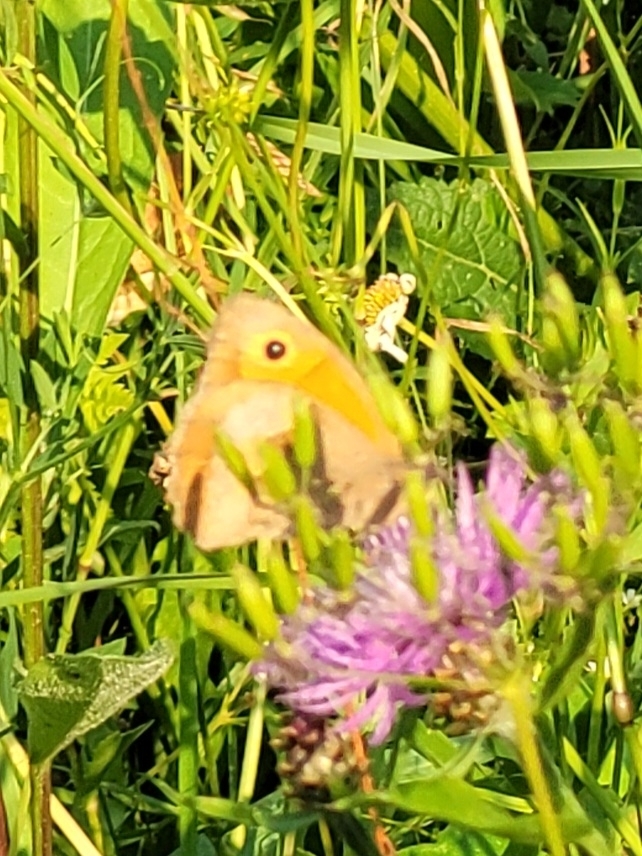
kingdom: Animalia
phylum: Arthropoda
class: Insecta
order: Lepidoptera
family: Nymphalidae
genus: Maniola
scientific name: Maniola jurtina
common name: Meadow brown
